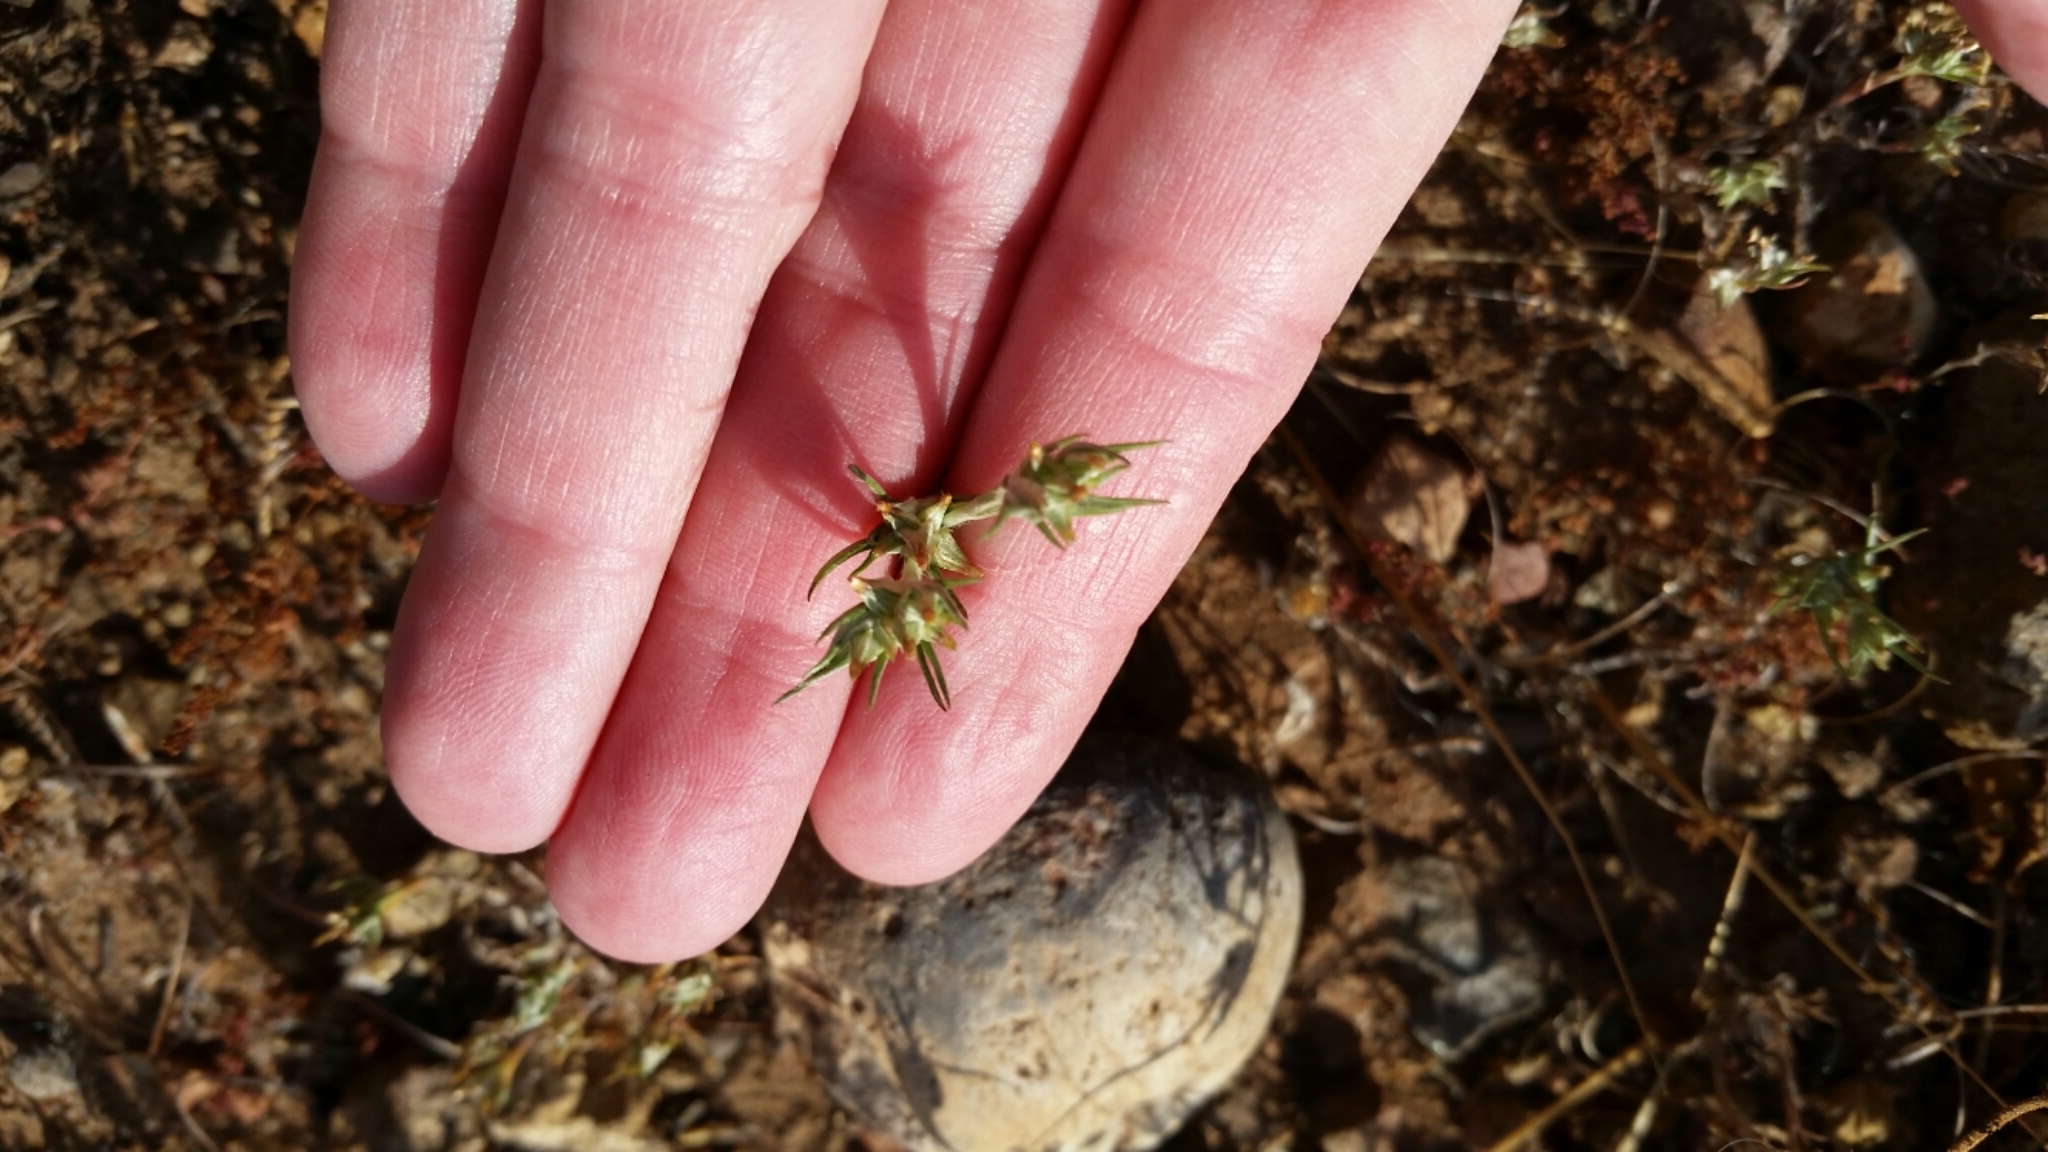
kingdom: Plantae
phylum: Tracheophyta
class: Magnoliopsida
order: Asterales
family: Asteraceae
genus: Logfia
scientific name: Logfia gallica
